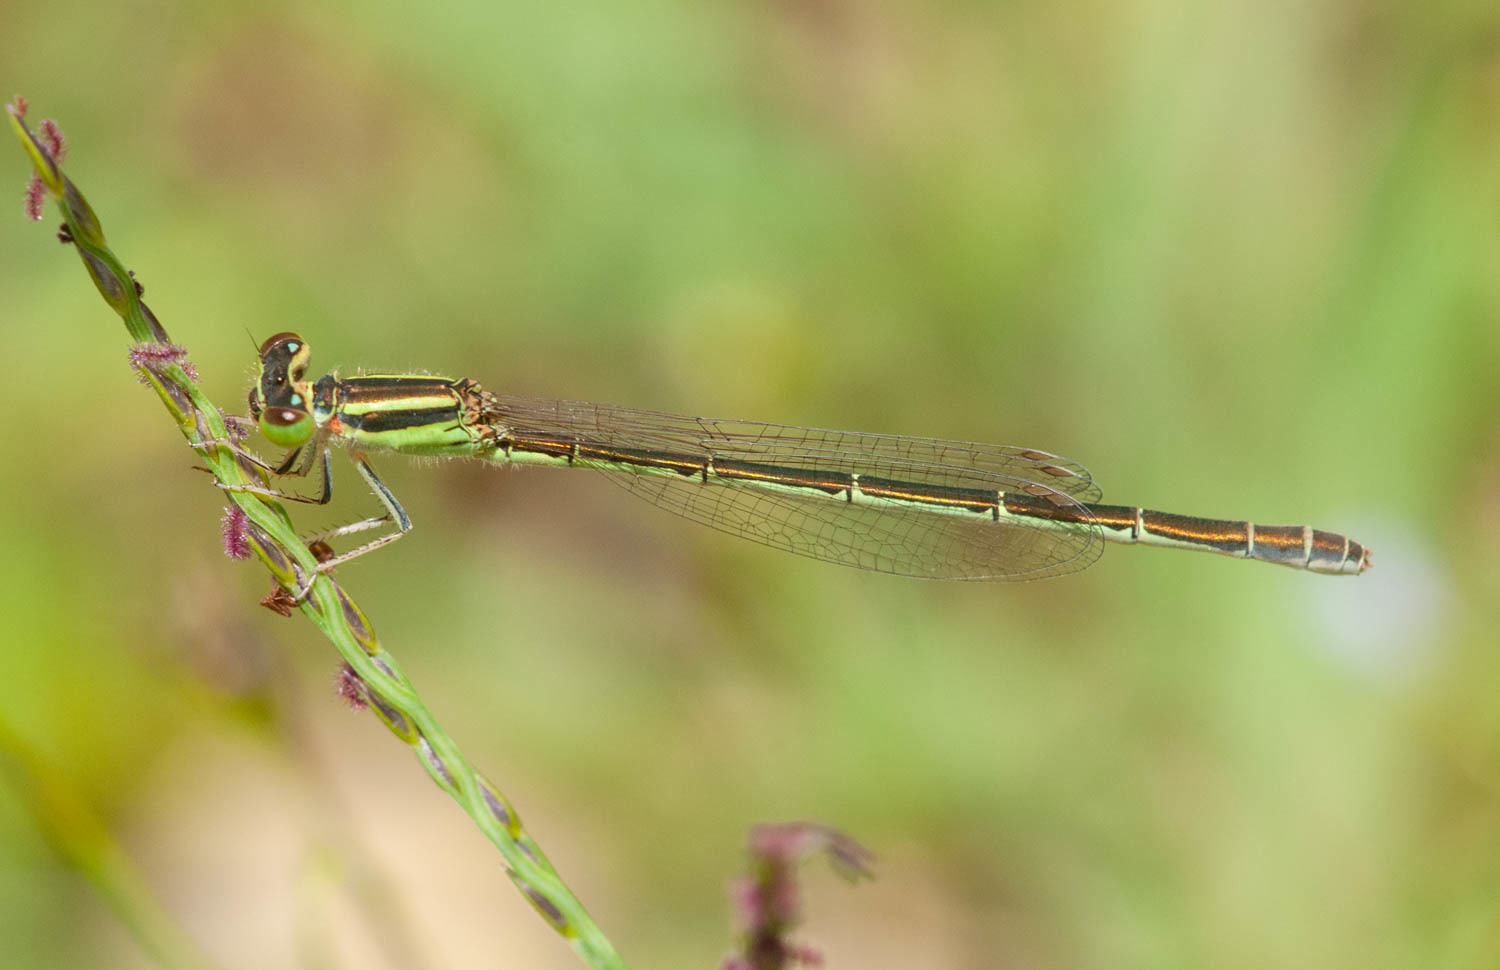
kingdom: Animalia
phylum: Arthropoda
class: Insecta
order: Odonata
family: Coenagrionidae
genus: Ischnura
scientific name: Ischnura aurora
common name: Gossamer damselfly
